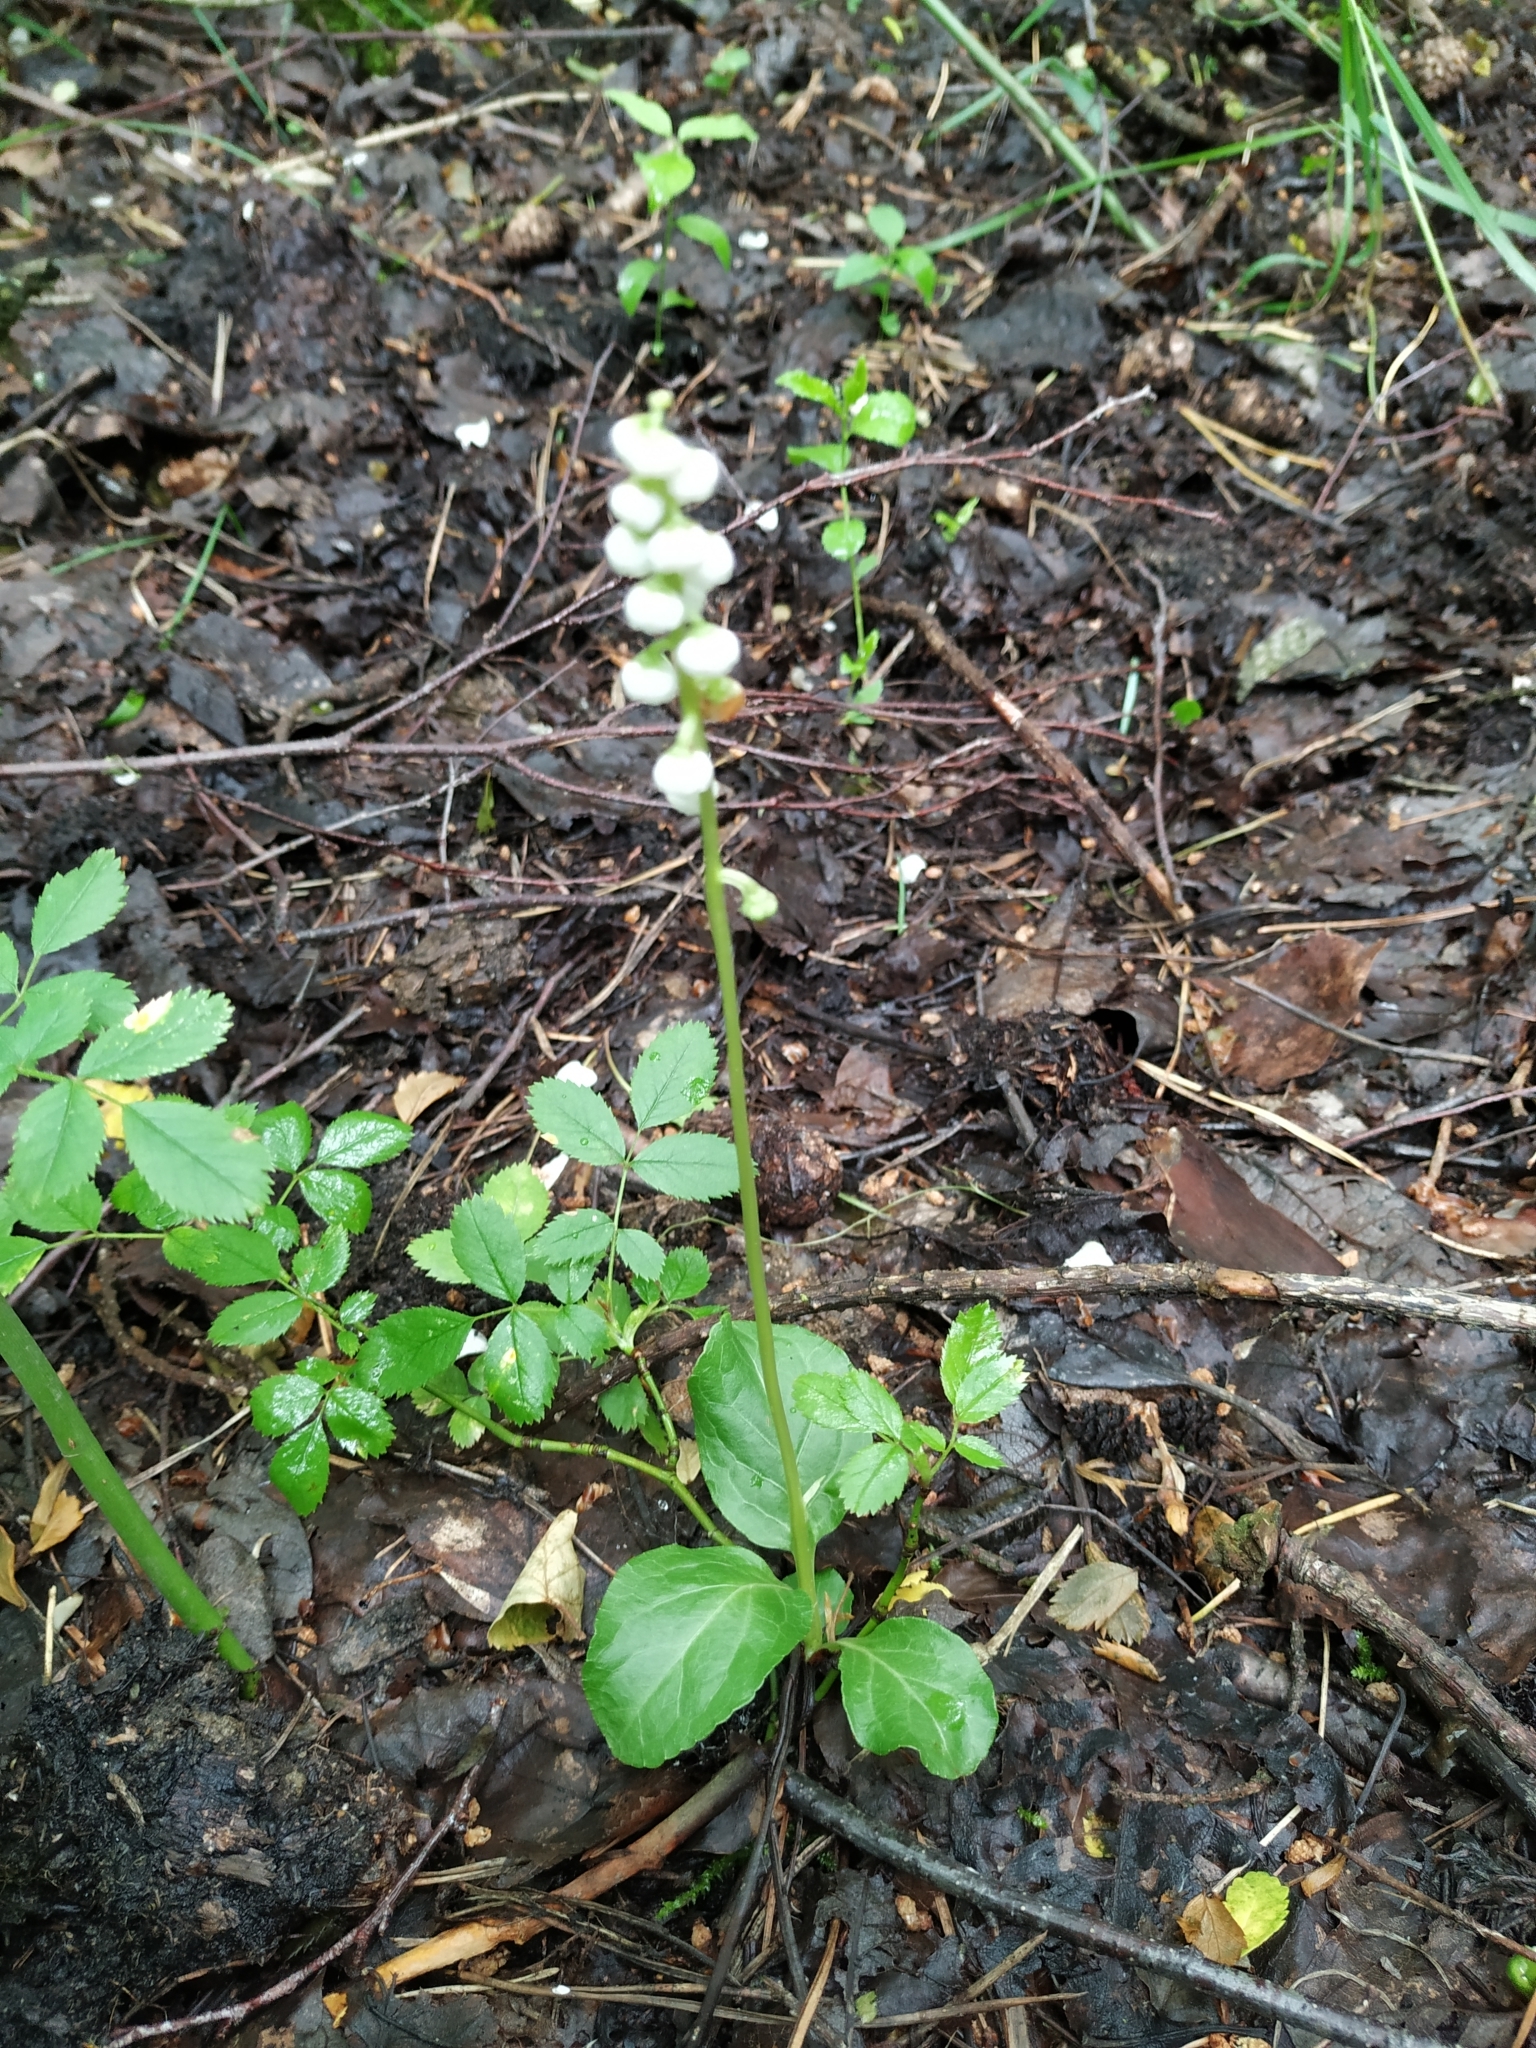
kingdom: Plantae
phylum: Tracheophyta
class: Magnoliopsida
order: Ericales
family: Ericaceae
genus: Pyrola
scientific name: Pyrola minor
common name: Common wintergreen
